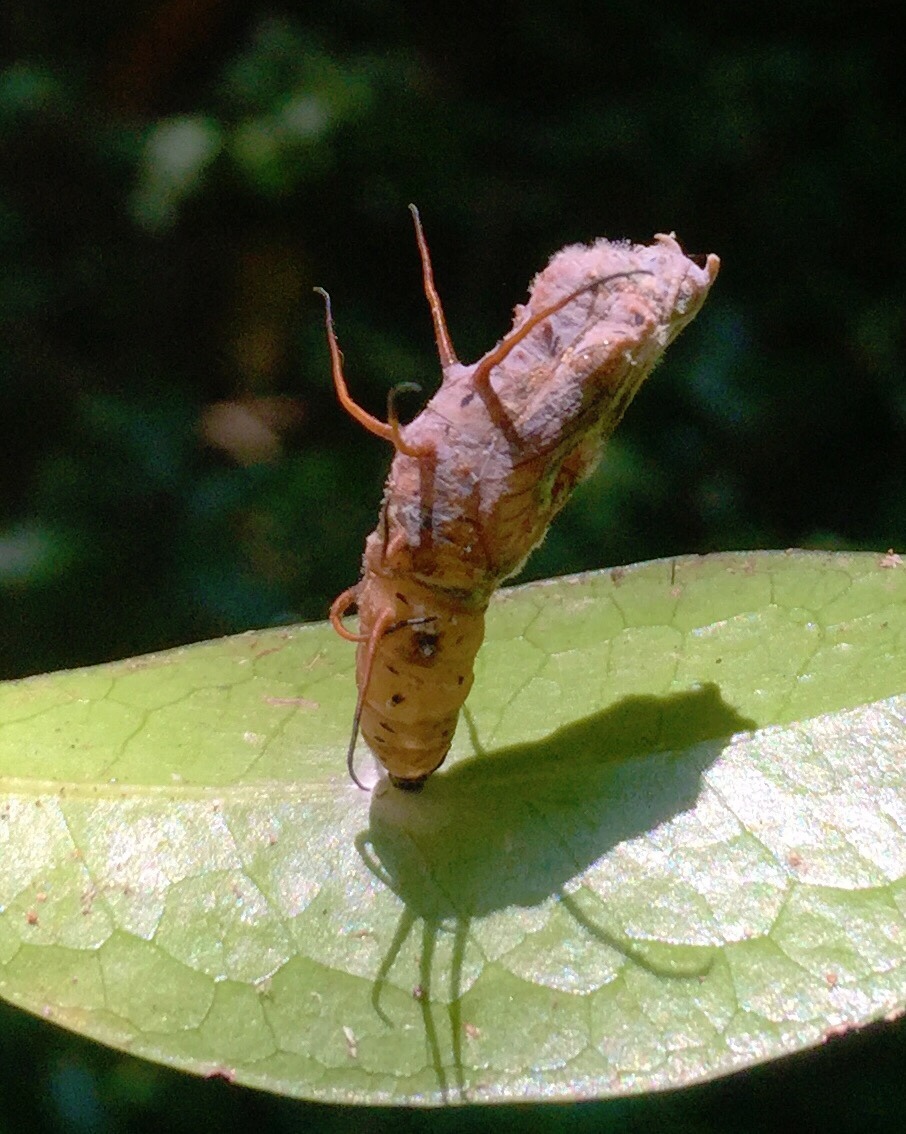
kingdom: Animalia
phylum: Arthropoda
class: Insecta
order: Lepidoptera
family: Nymphalidae
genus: Acraea
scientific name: Acraea Bematistes aganice
